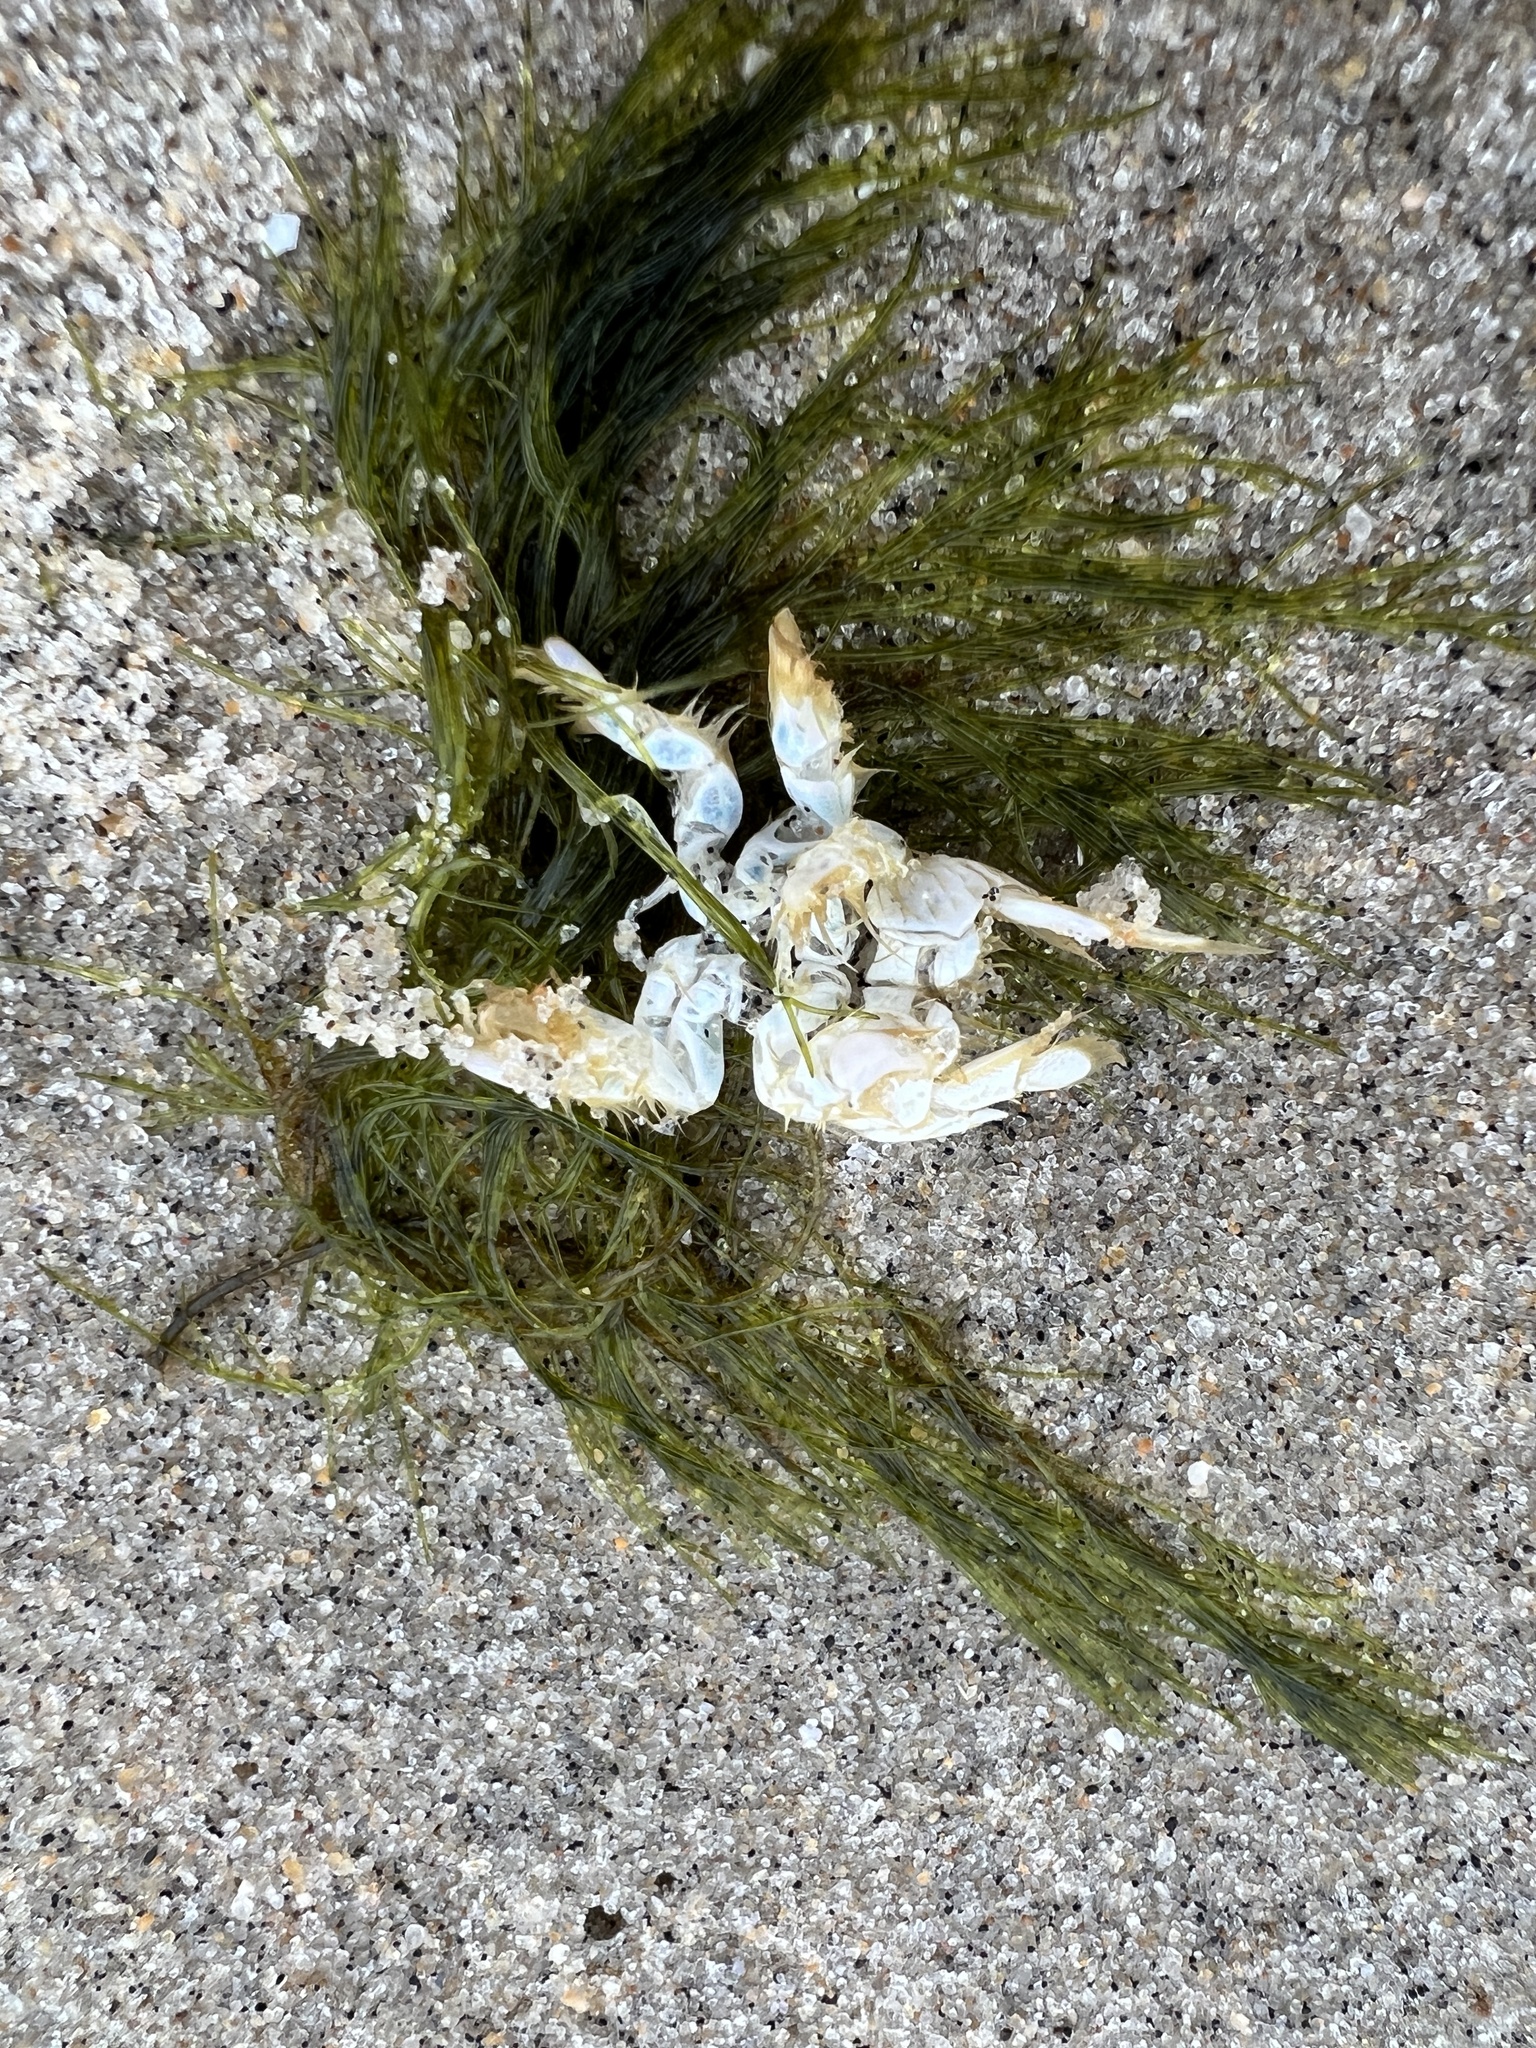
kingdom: Animalia
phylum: Arthropoda
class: Malacostraca
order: Decapoda
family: Hippidae
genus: Emerita
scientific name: Emerita talpoida
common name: Atlantic sand crab
